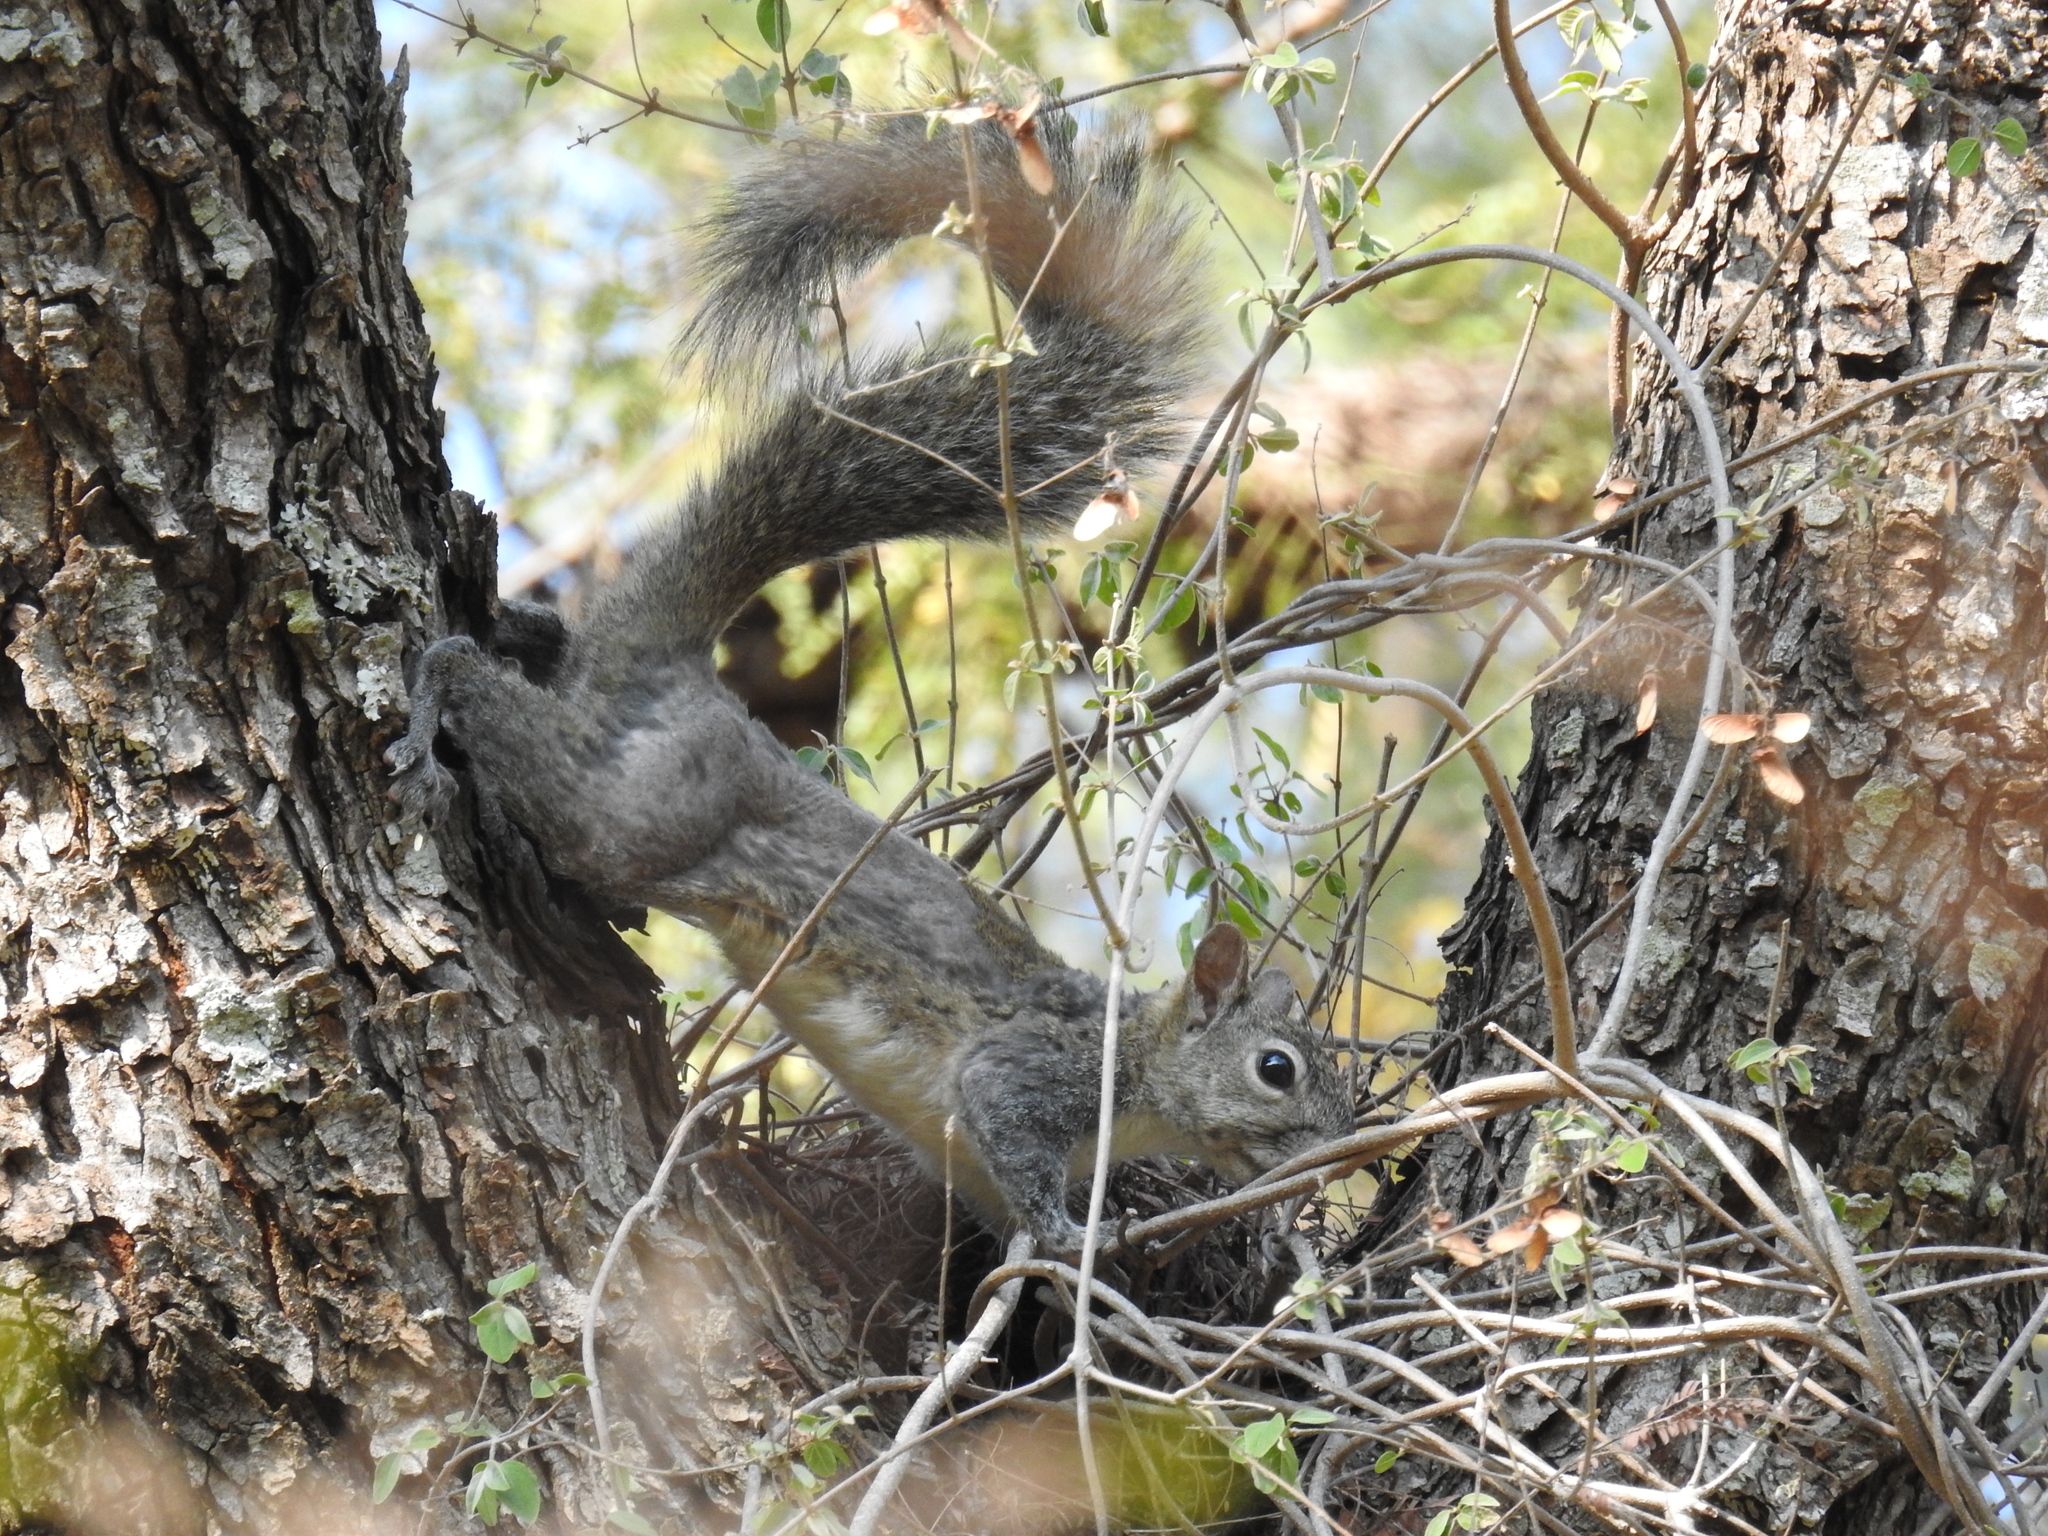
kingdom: Animalia
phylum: Chordata
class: Mammalia
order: Rodentia
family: Sciuridae
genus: Sciurus
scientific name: Sciurus colliaei
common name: Collie's squirrel
